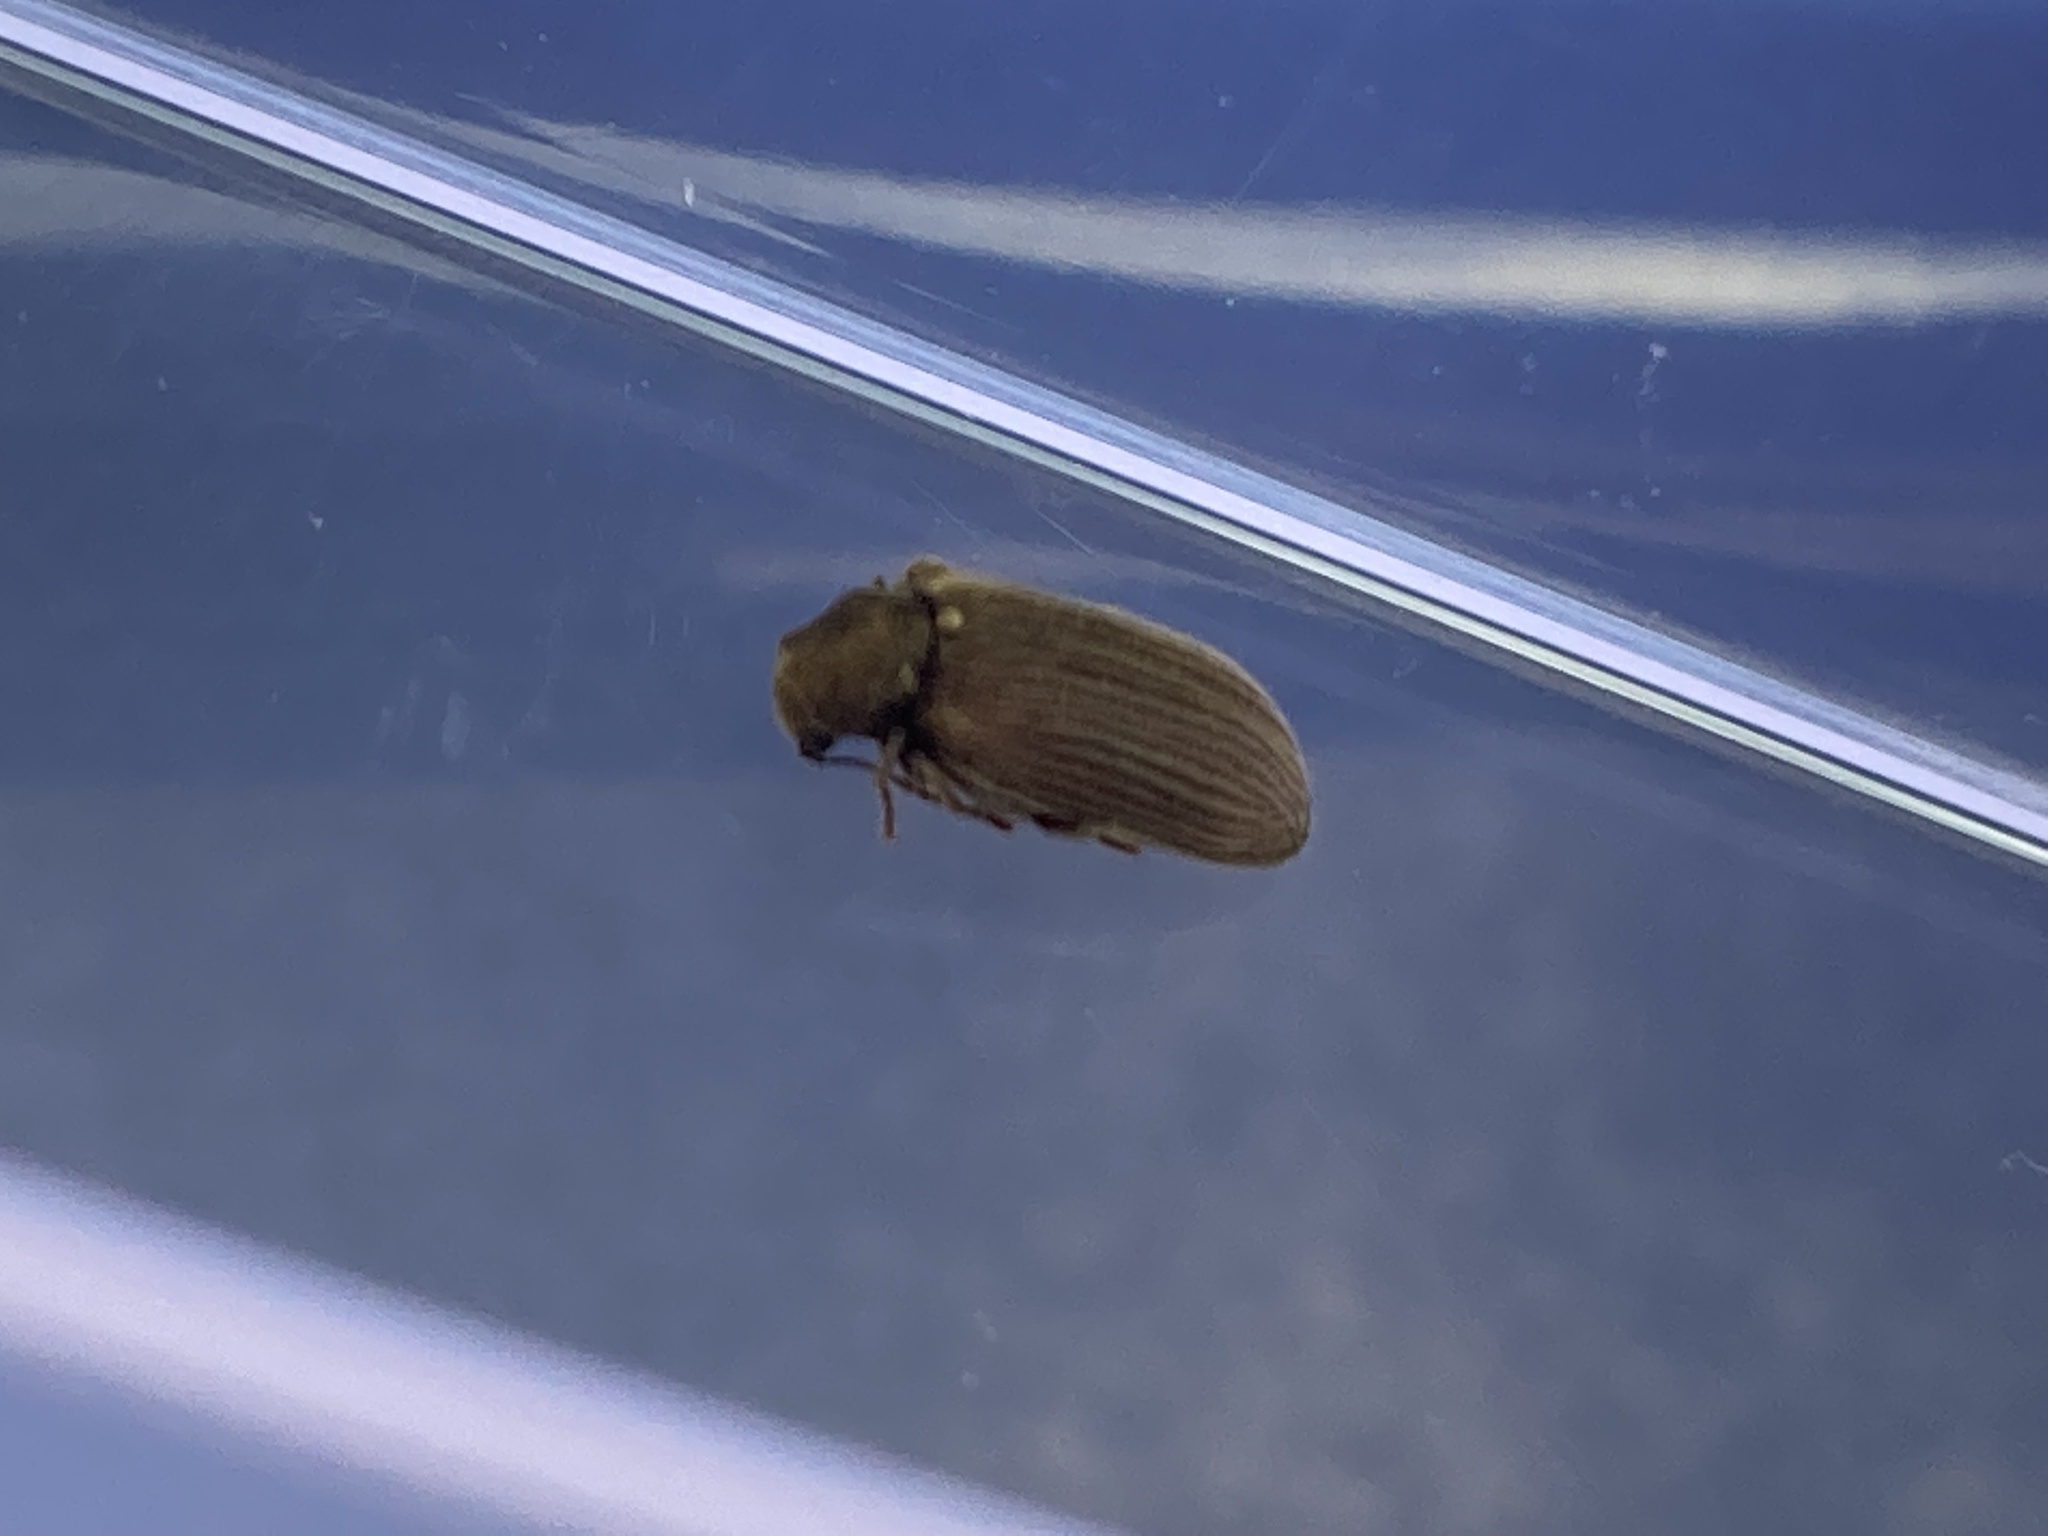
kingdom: Animalia
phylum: Arthropoda
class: Insecta
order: Coleoptera
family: Anobiidae
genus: Grynobius
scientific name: Grynobius planus
